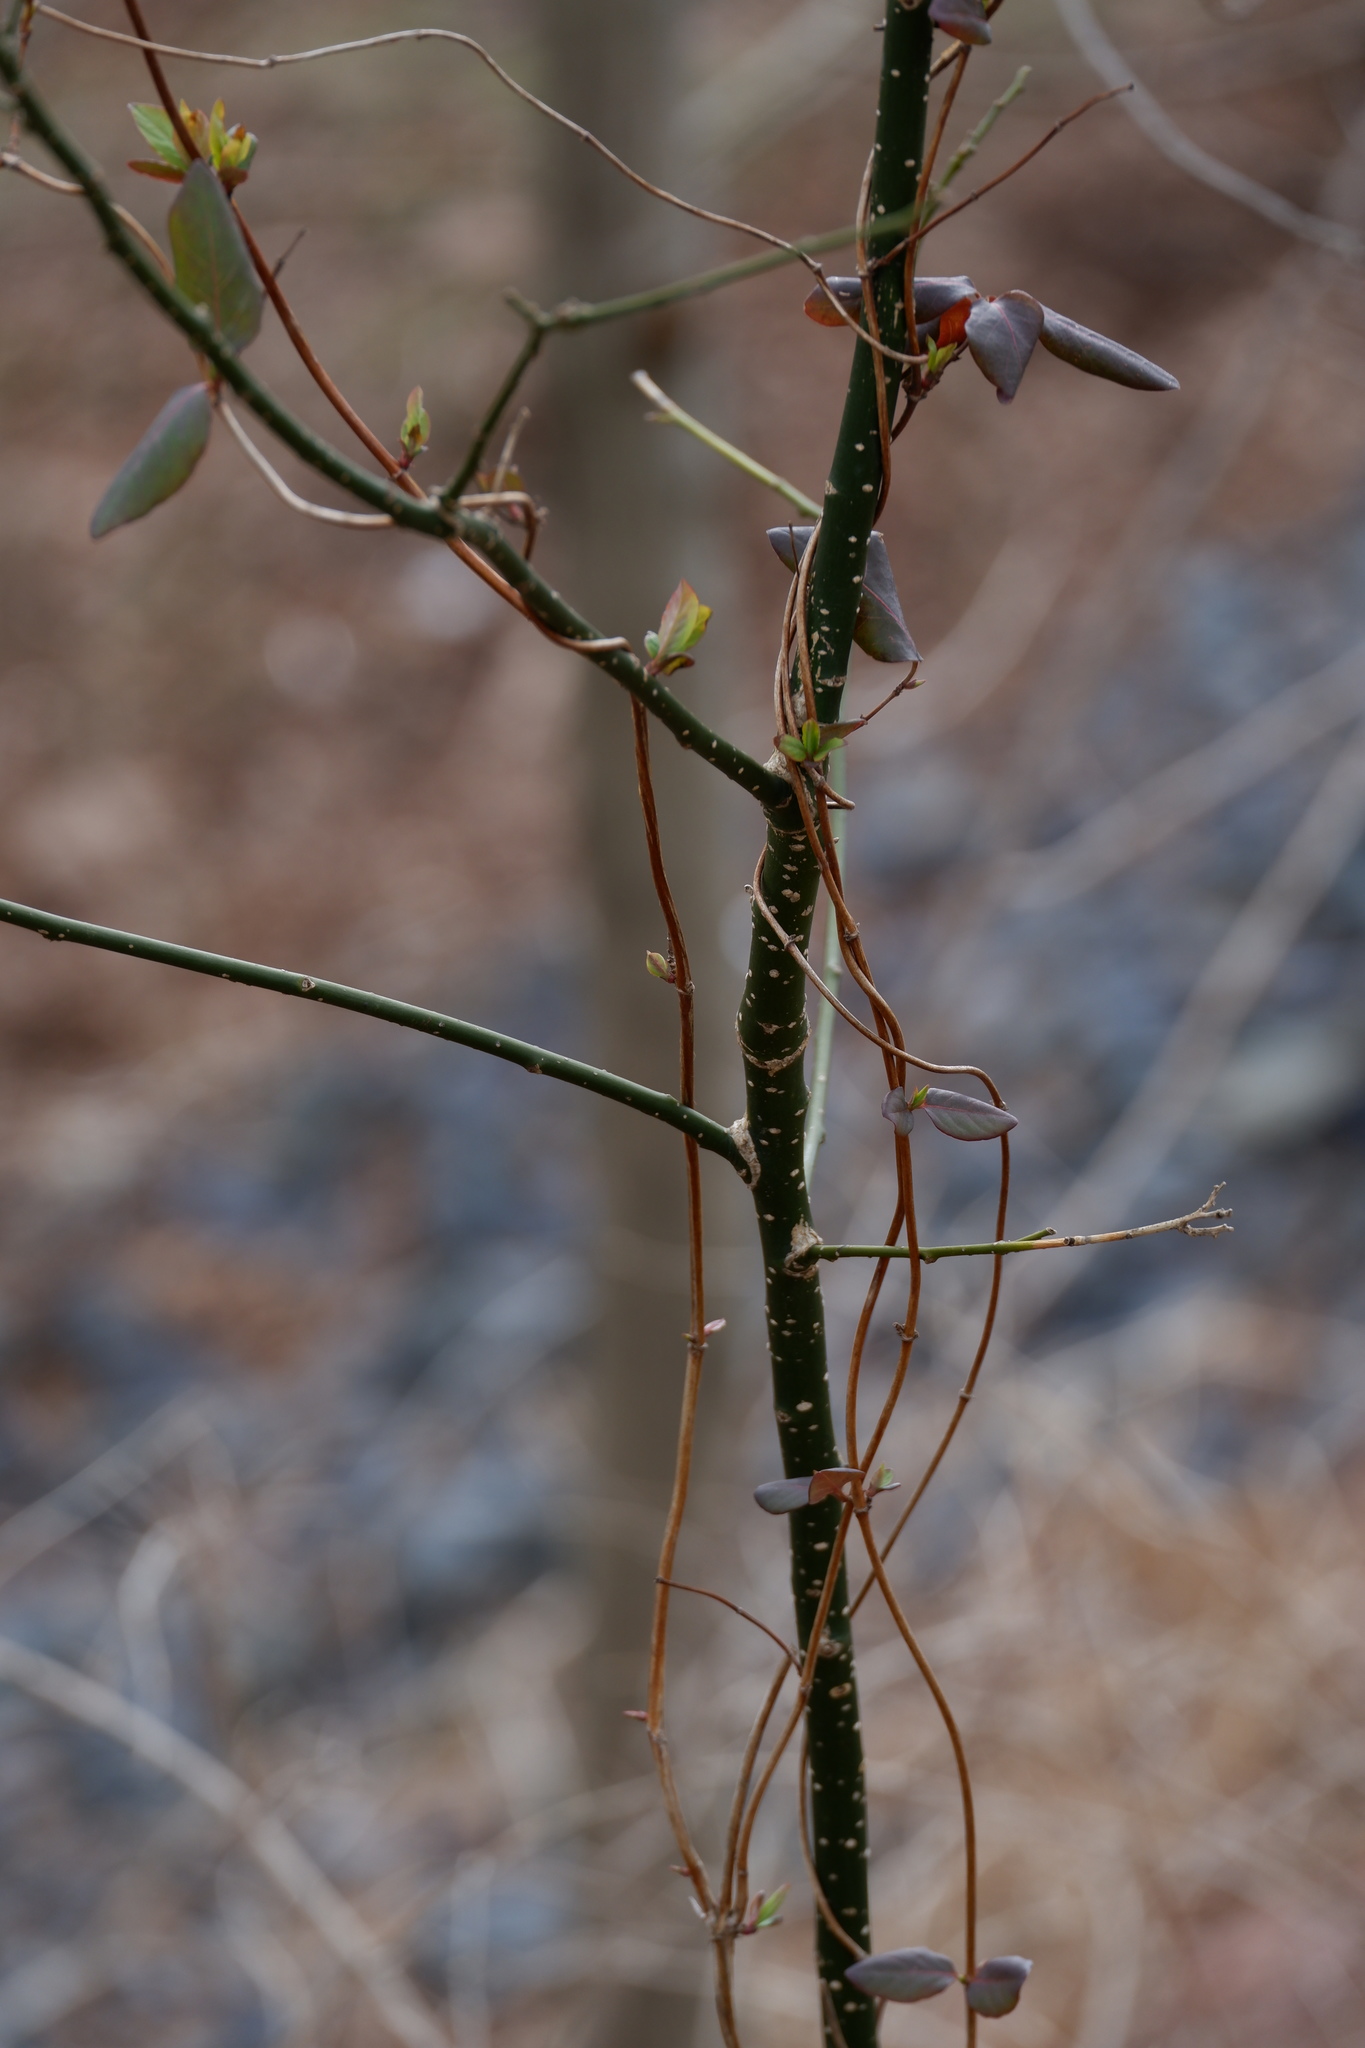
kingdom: Plantae
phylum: Tracheophyta
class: Magnoliopsida
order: Laurales
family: Lauraceae
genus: Sassafras
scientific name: Sassafras albidum
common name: Sassafras
